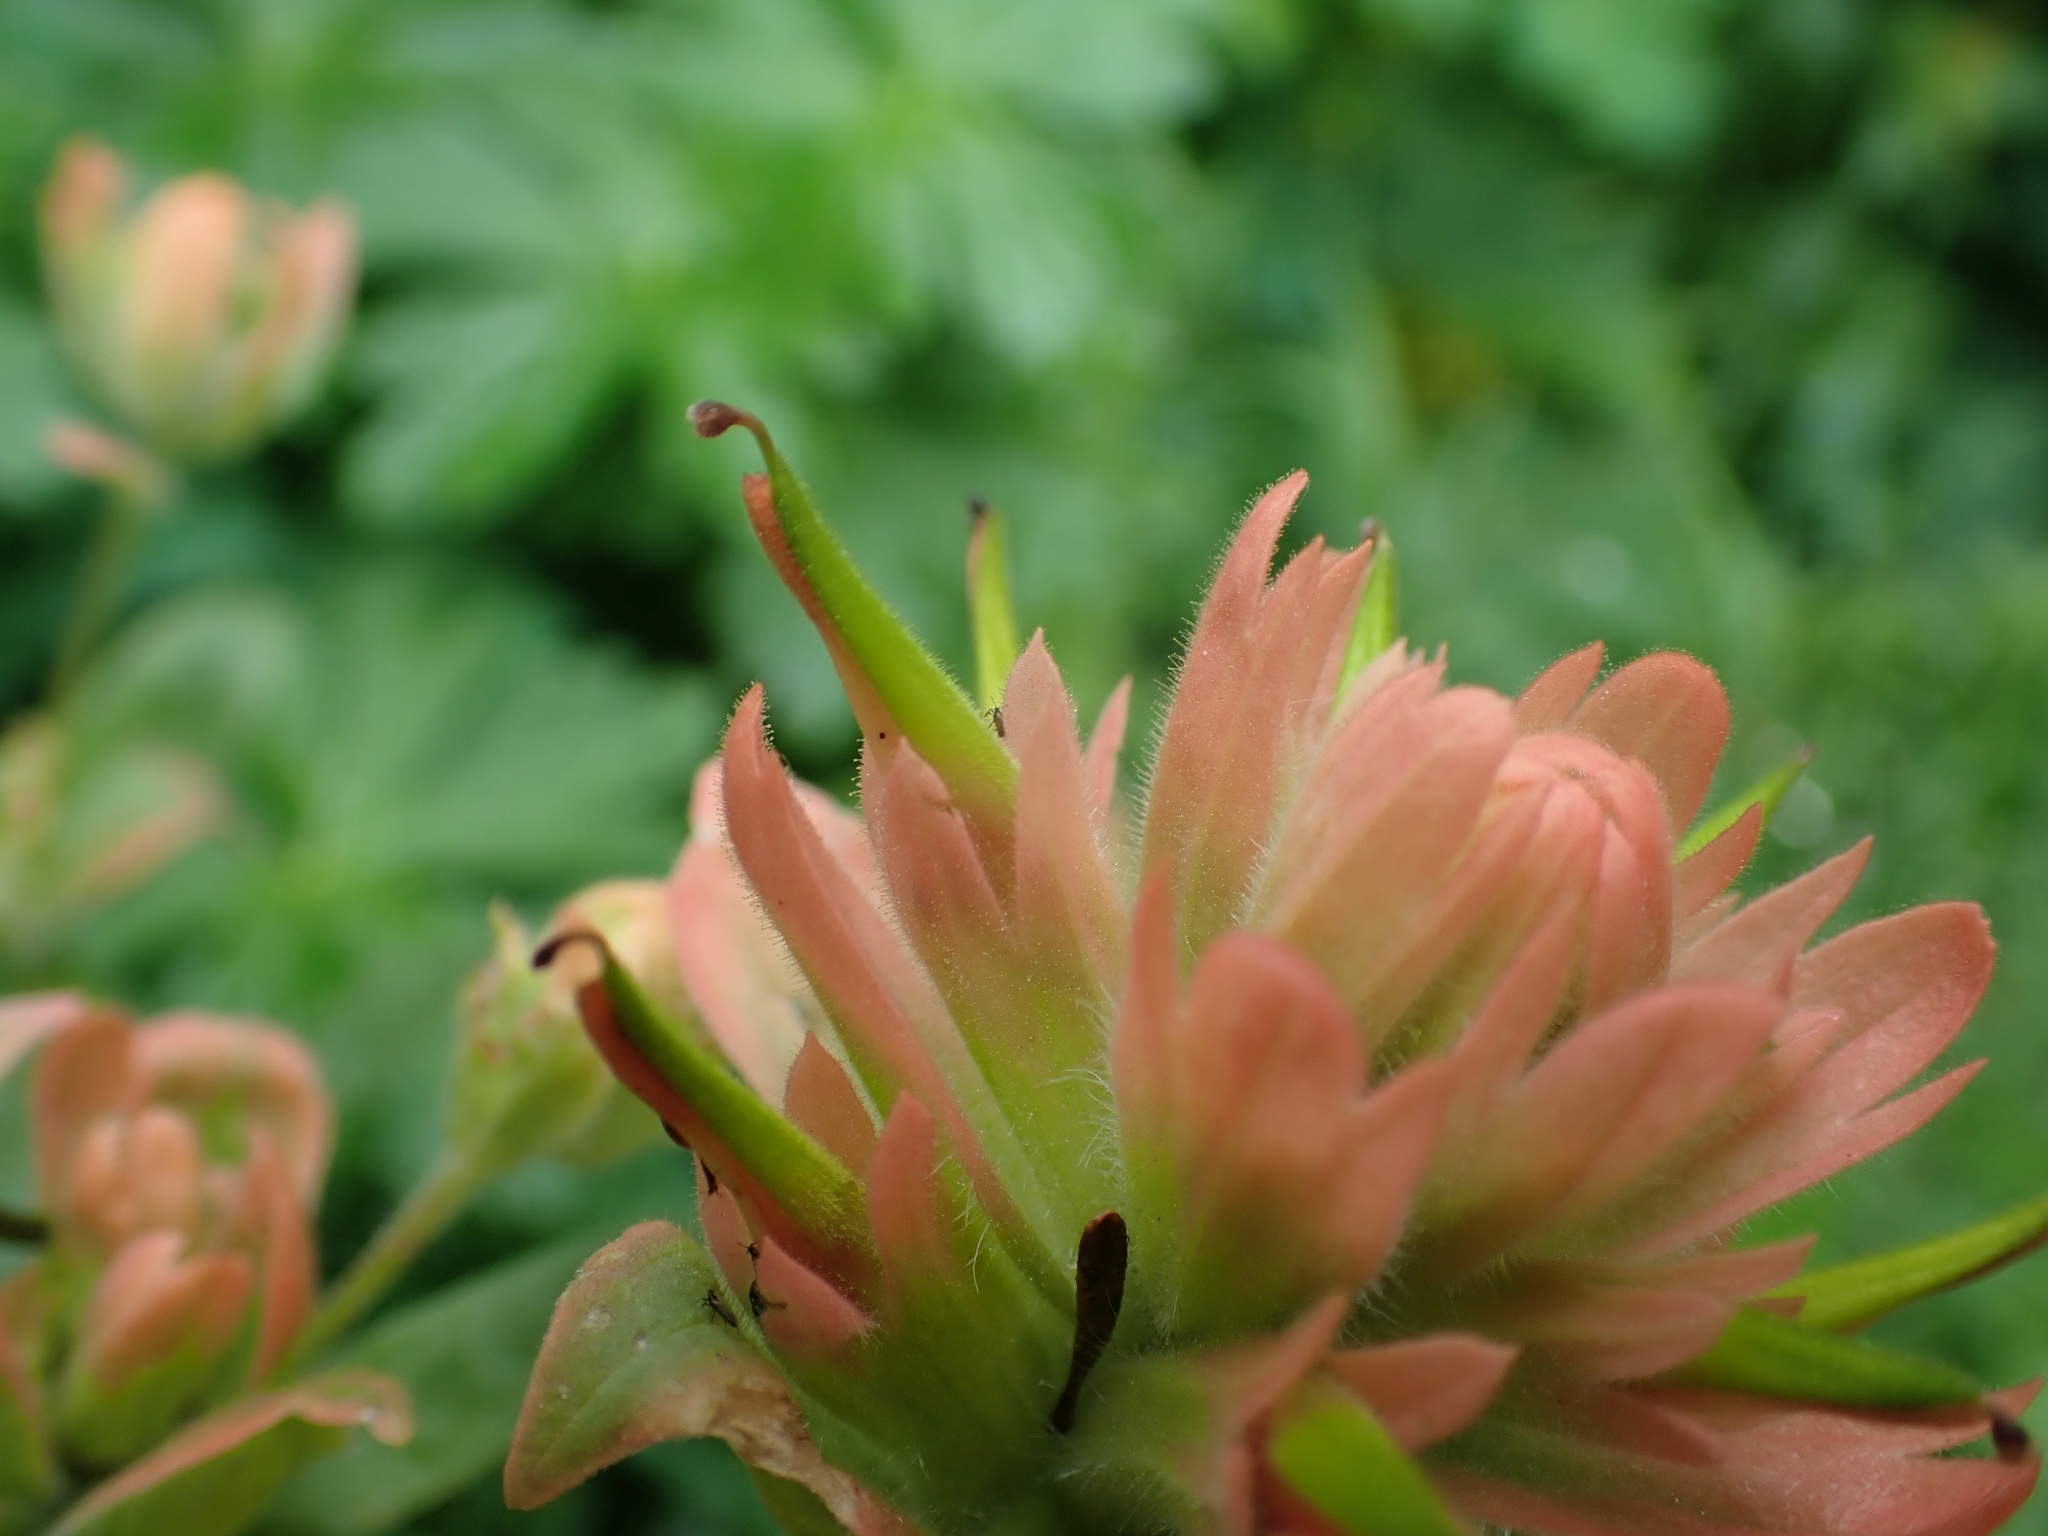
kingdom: Plantae
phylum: Tracheophyta
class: Magnoliopsida
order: Lamiales
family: Orobanchaceae
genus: Castilleja
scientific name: Castilleja miniata
